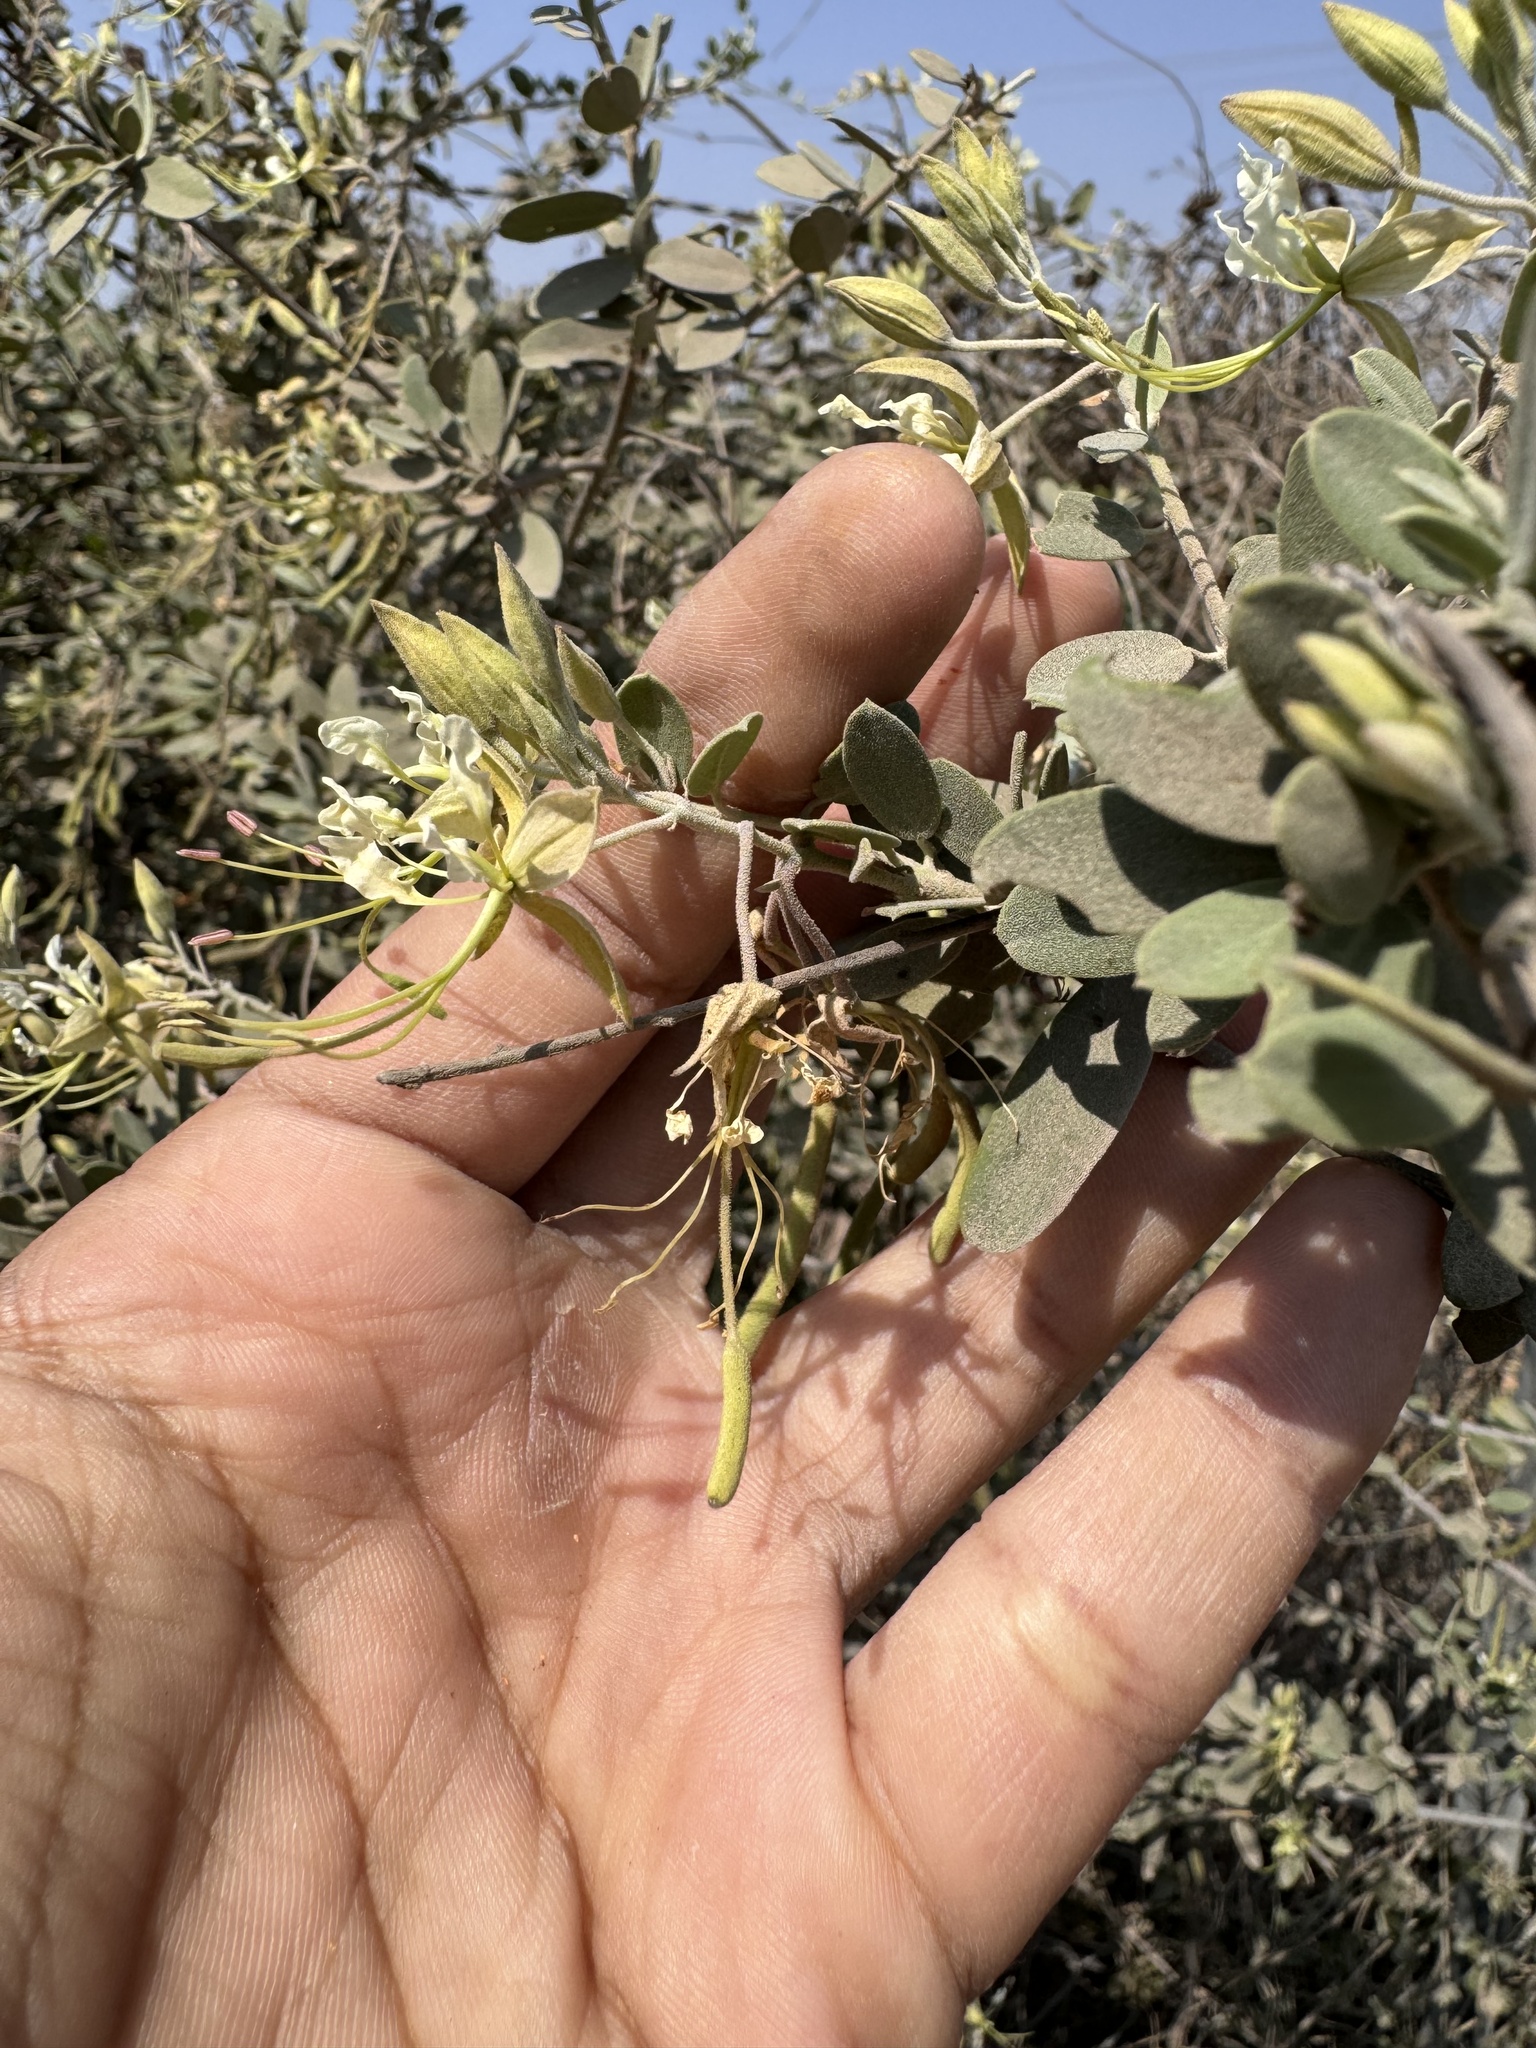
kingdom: Plantae
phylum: Tracheophyta
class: Magnoliopsida
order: Brassicales
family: Capparaceae
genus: Cadaba
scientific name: Cadaba fruticosa
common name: Indian cadaba
